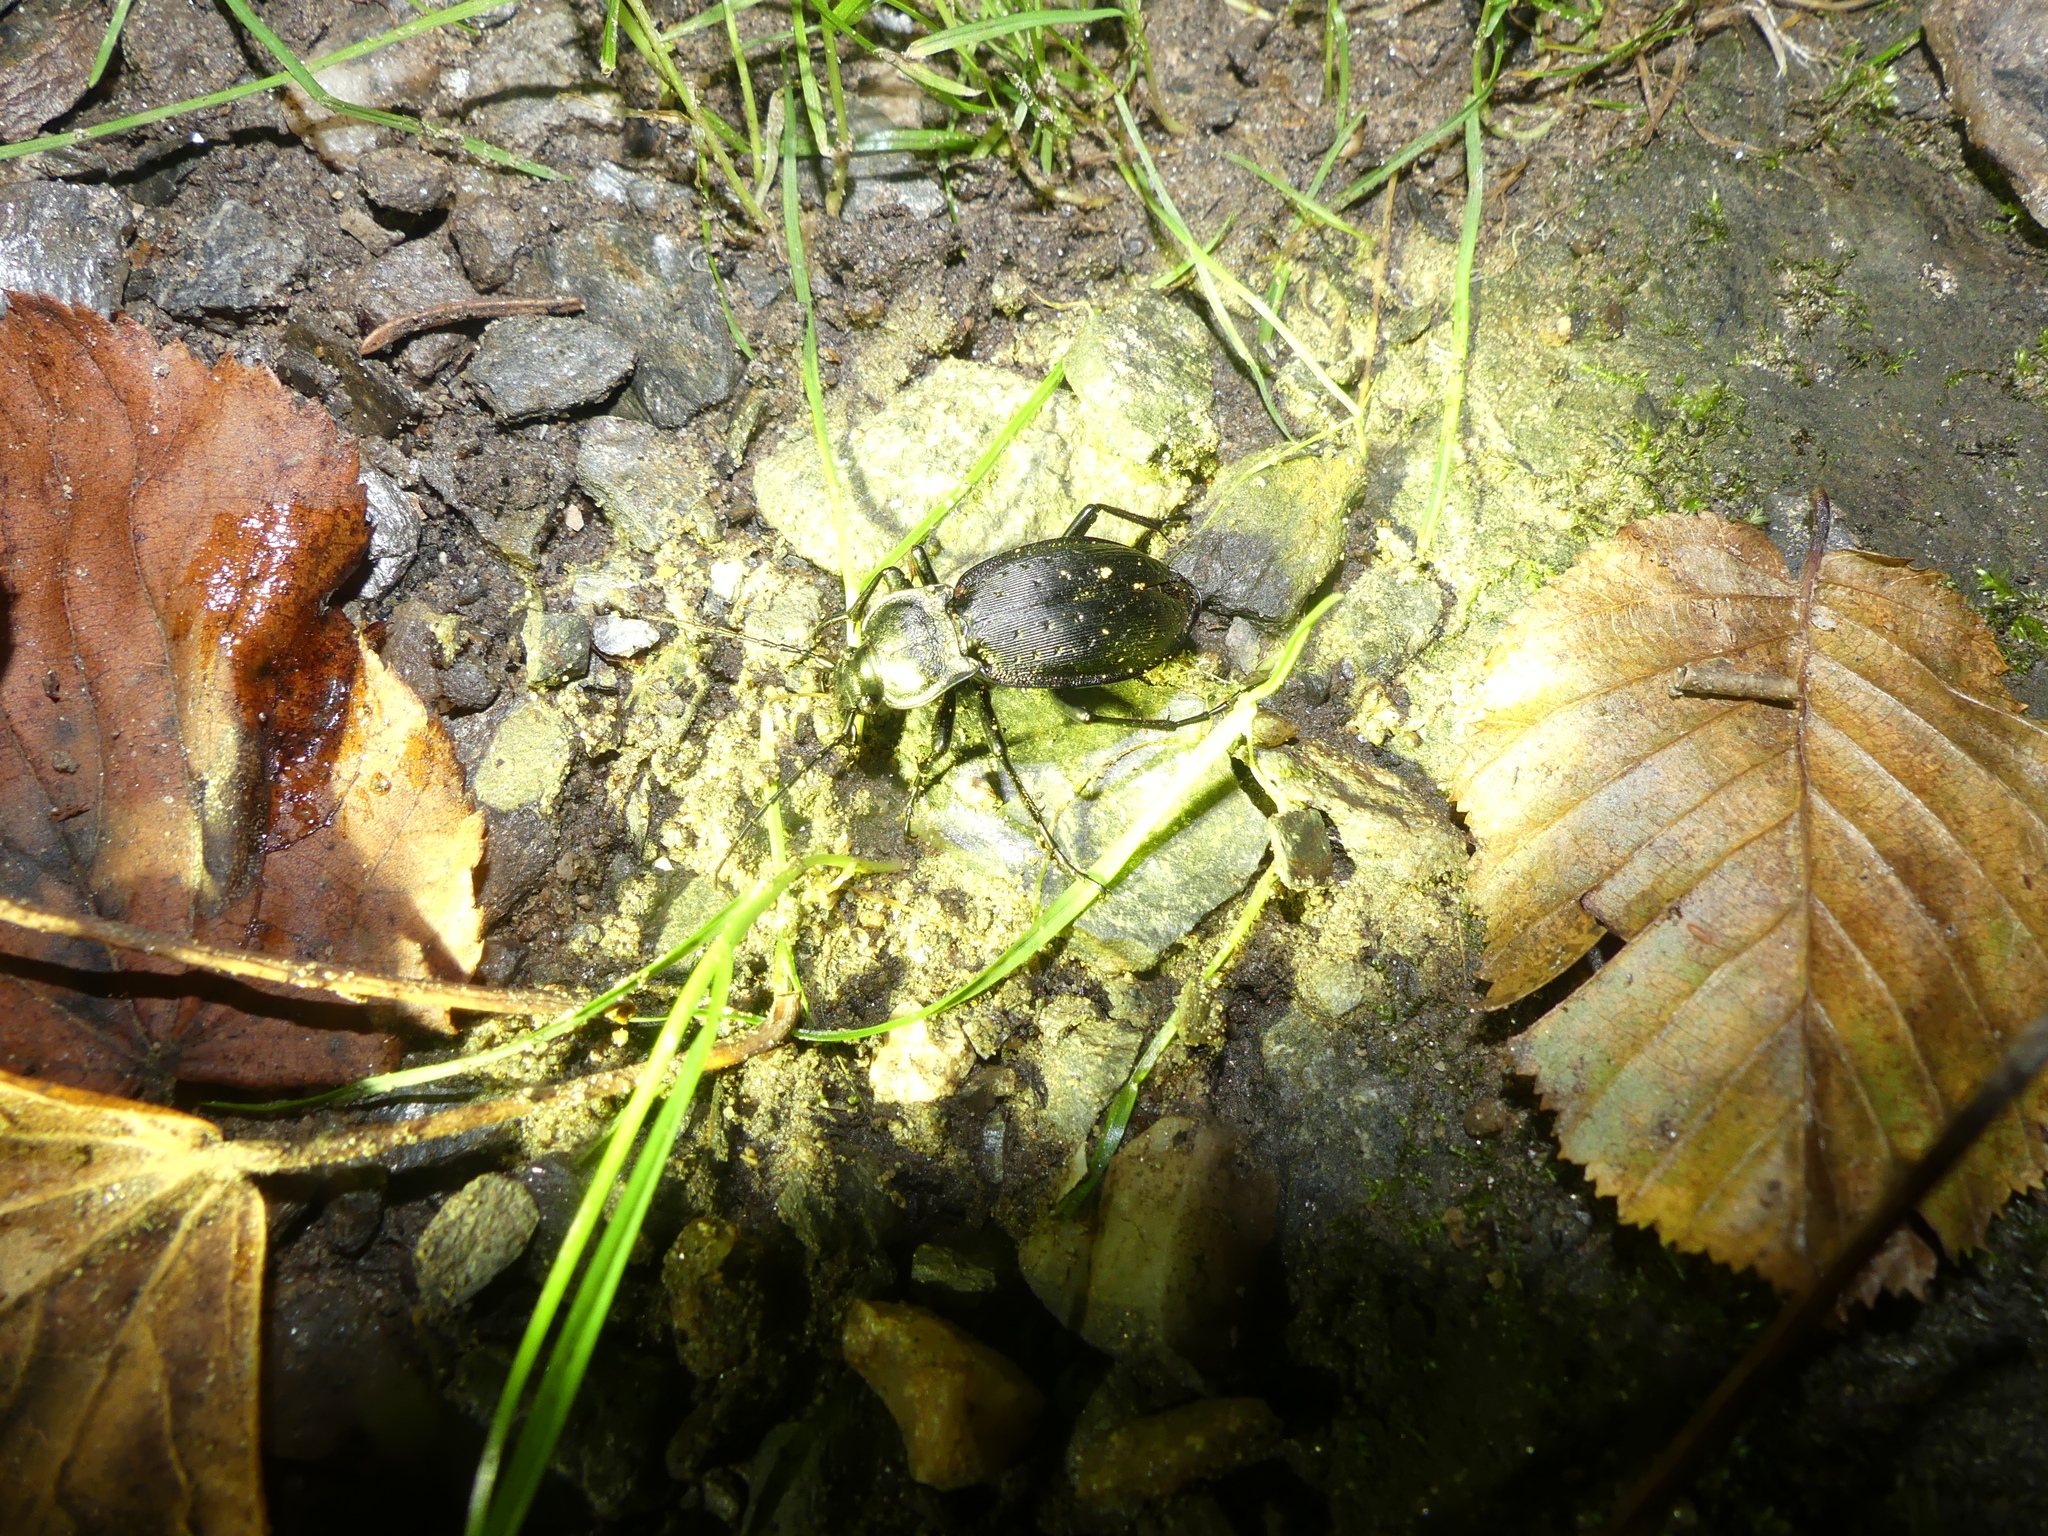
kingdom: Animalia
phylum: Arthropoda
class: Insecta
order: Coleoptera
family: Carabidae
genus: Carabus
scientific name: Carabus hortensis
